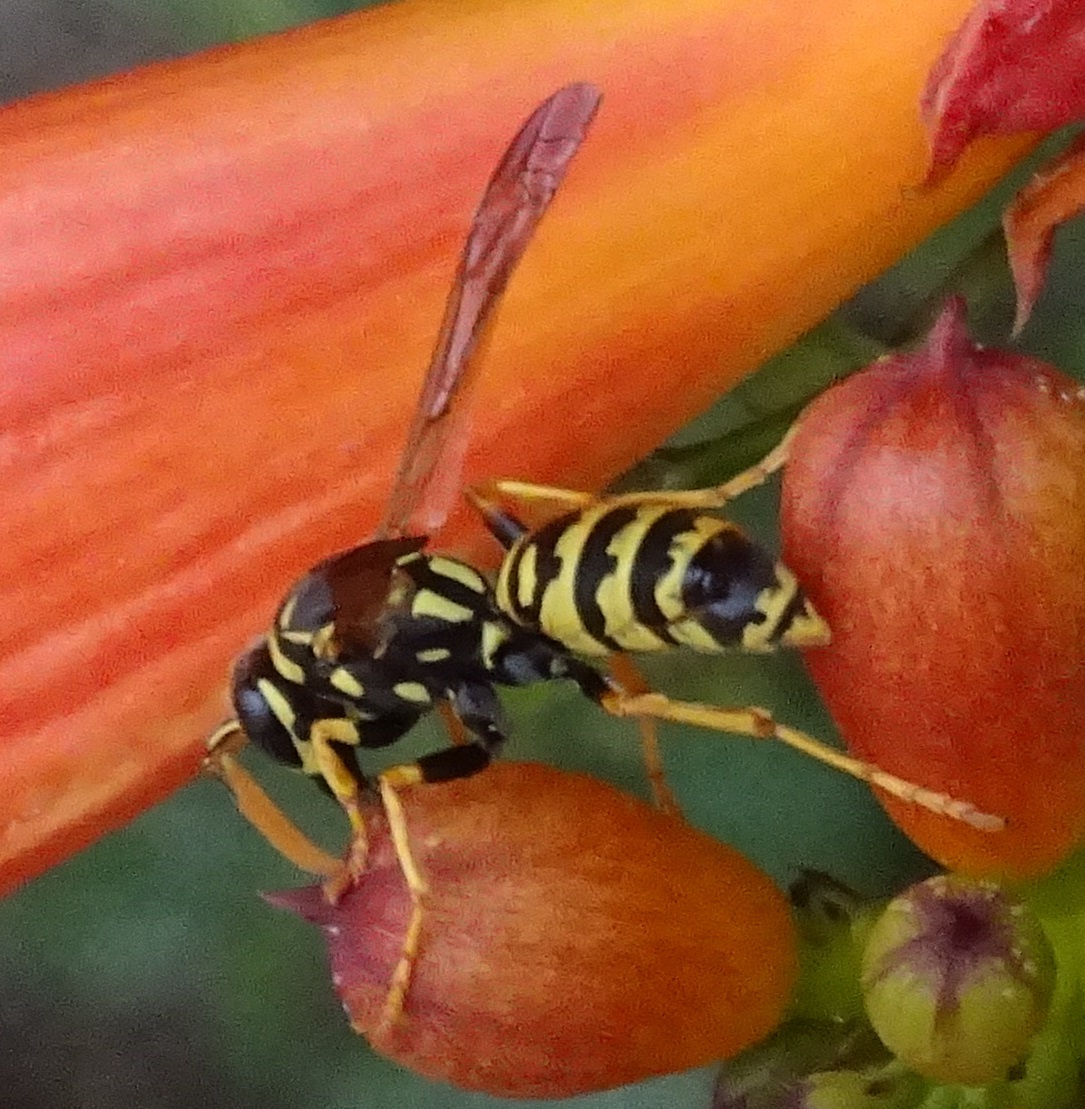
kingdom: Animalia
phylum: Arthropoda
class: Insecta
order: Hymenoptera
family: Eumenidae
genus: Polistes
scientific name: Polistes dominula
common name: Paper wasp
